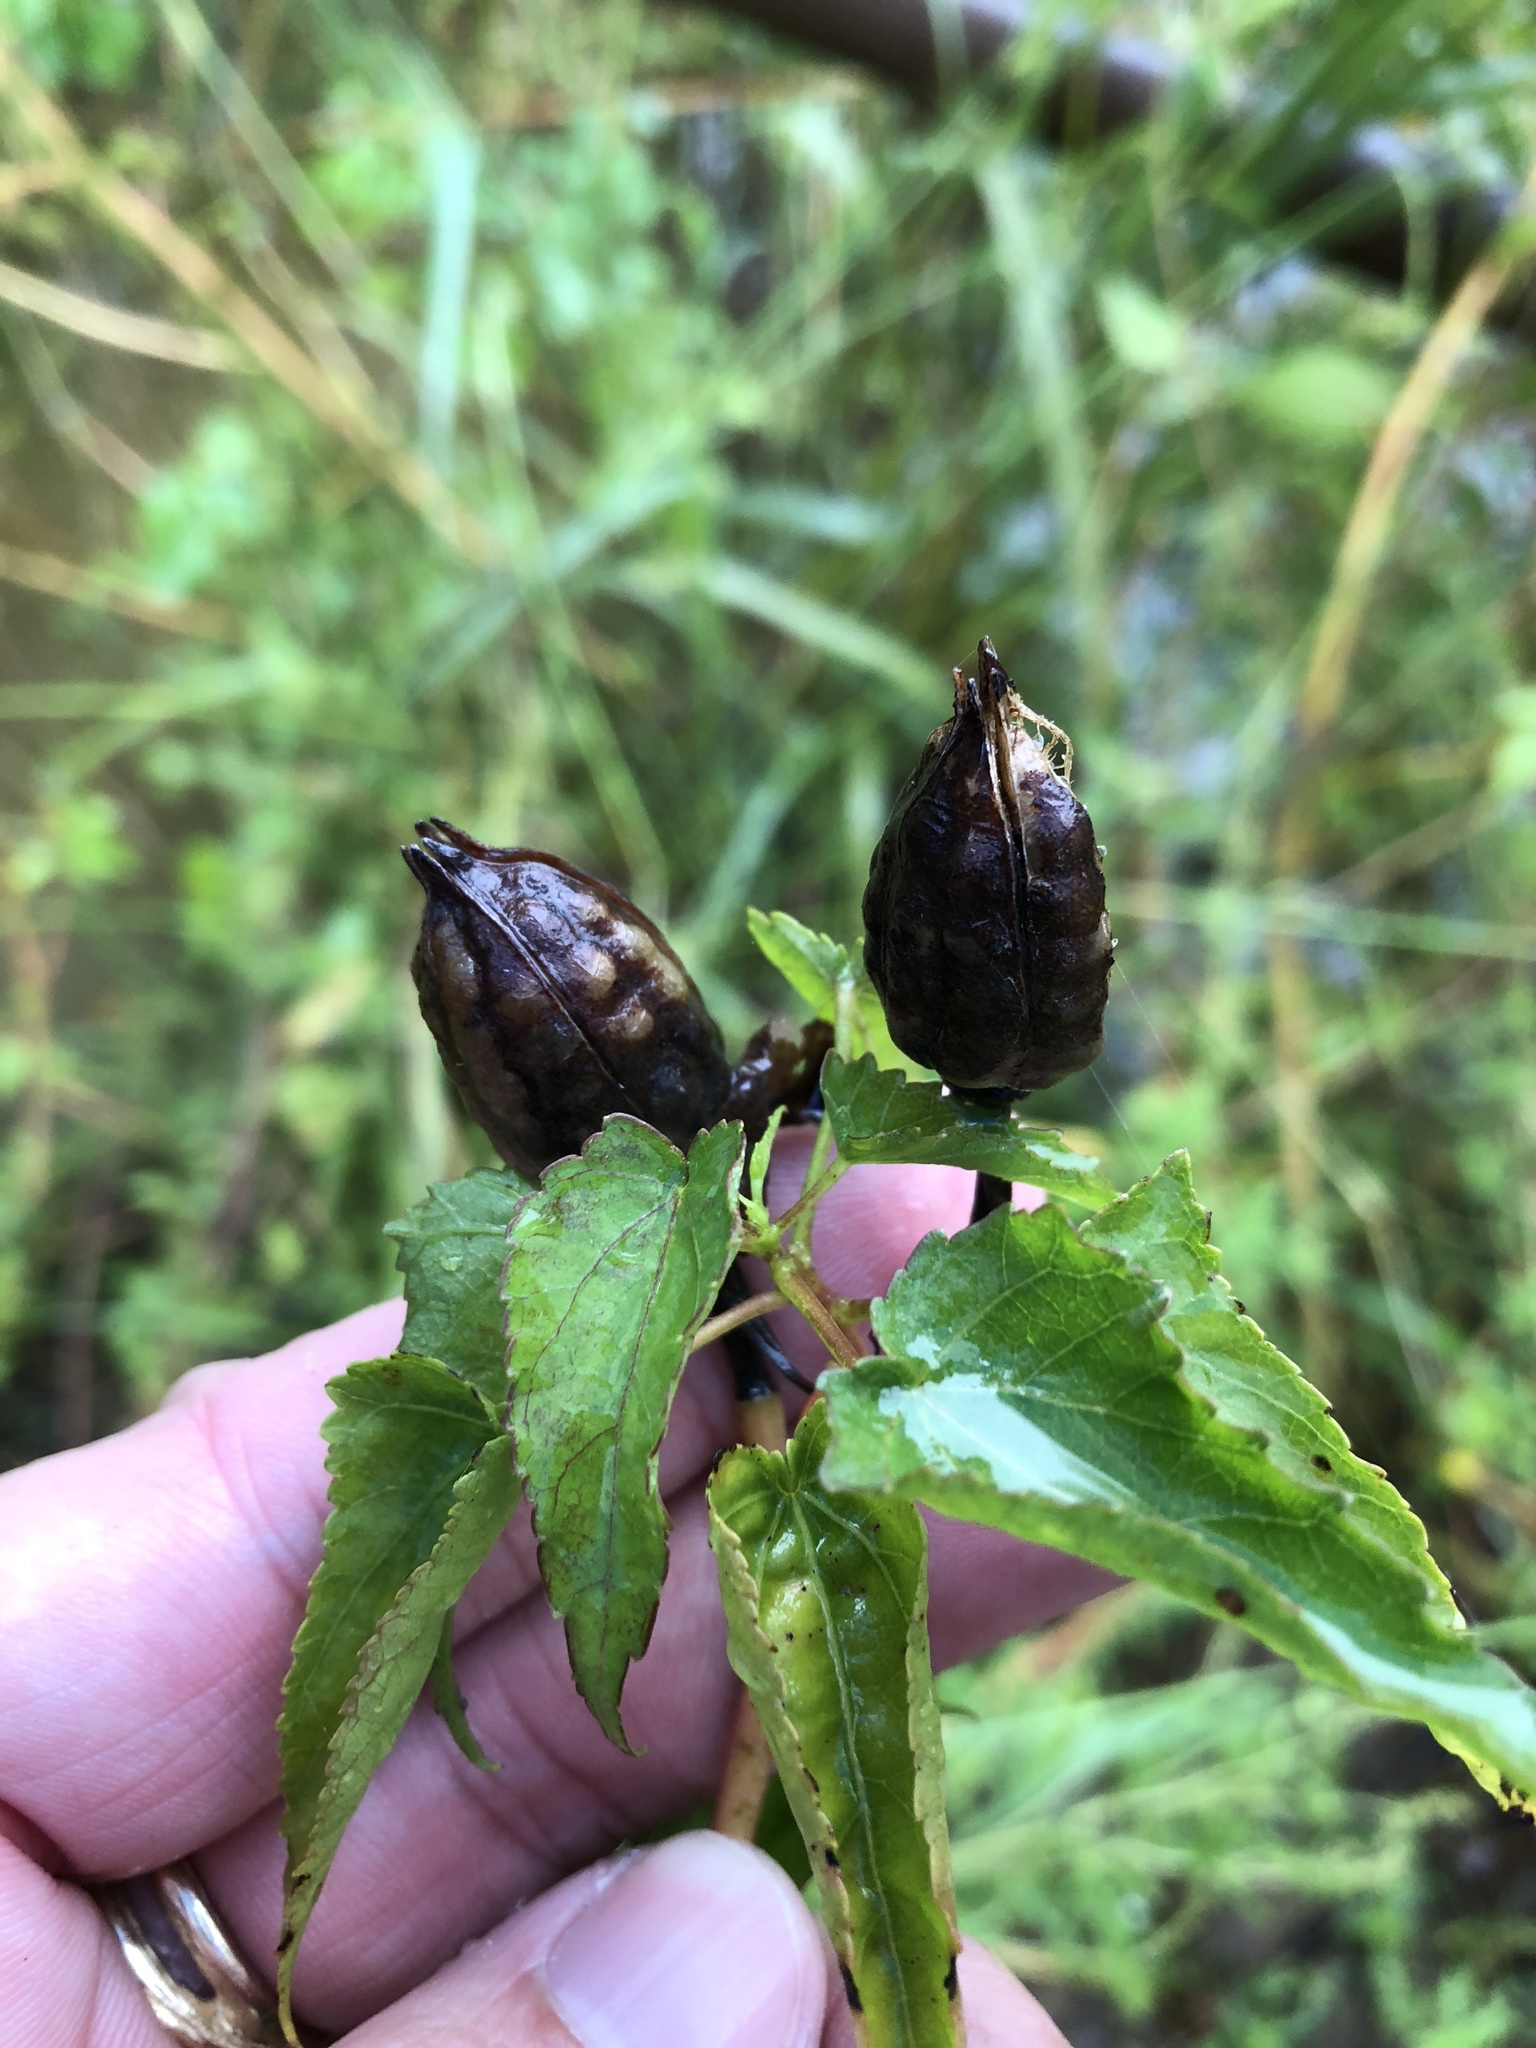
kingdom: Plantae
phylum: Tracheophyta
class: Magnoliopsida
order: Malvales
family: Malvaceae
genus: Hibiscus
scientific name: Hibiscus laevis
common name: Scarlet rose-mallow
